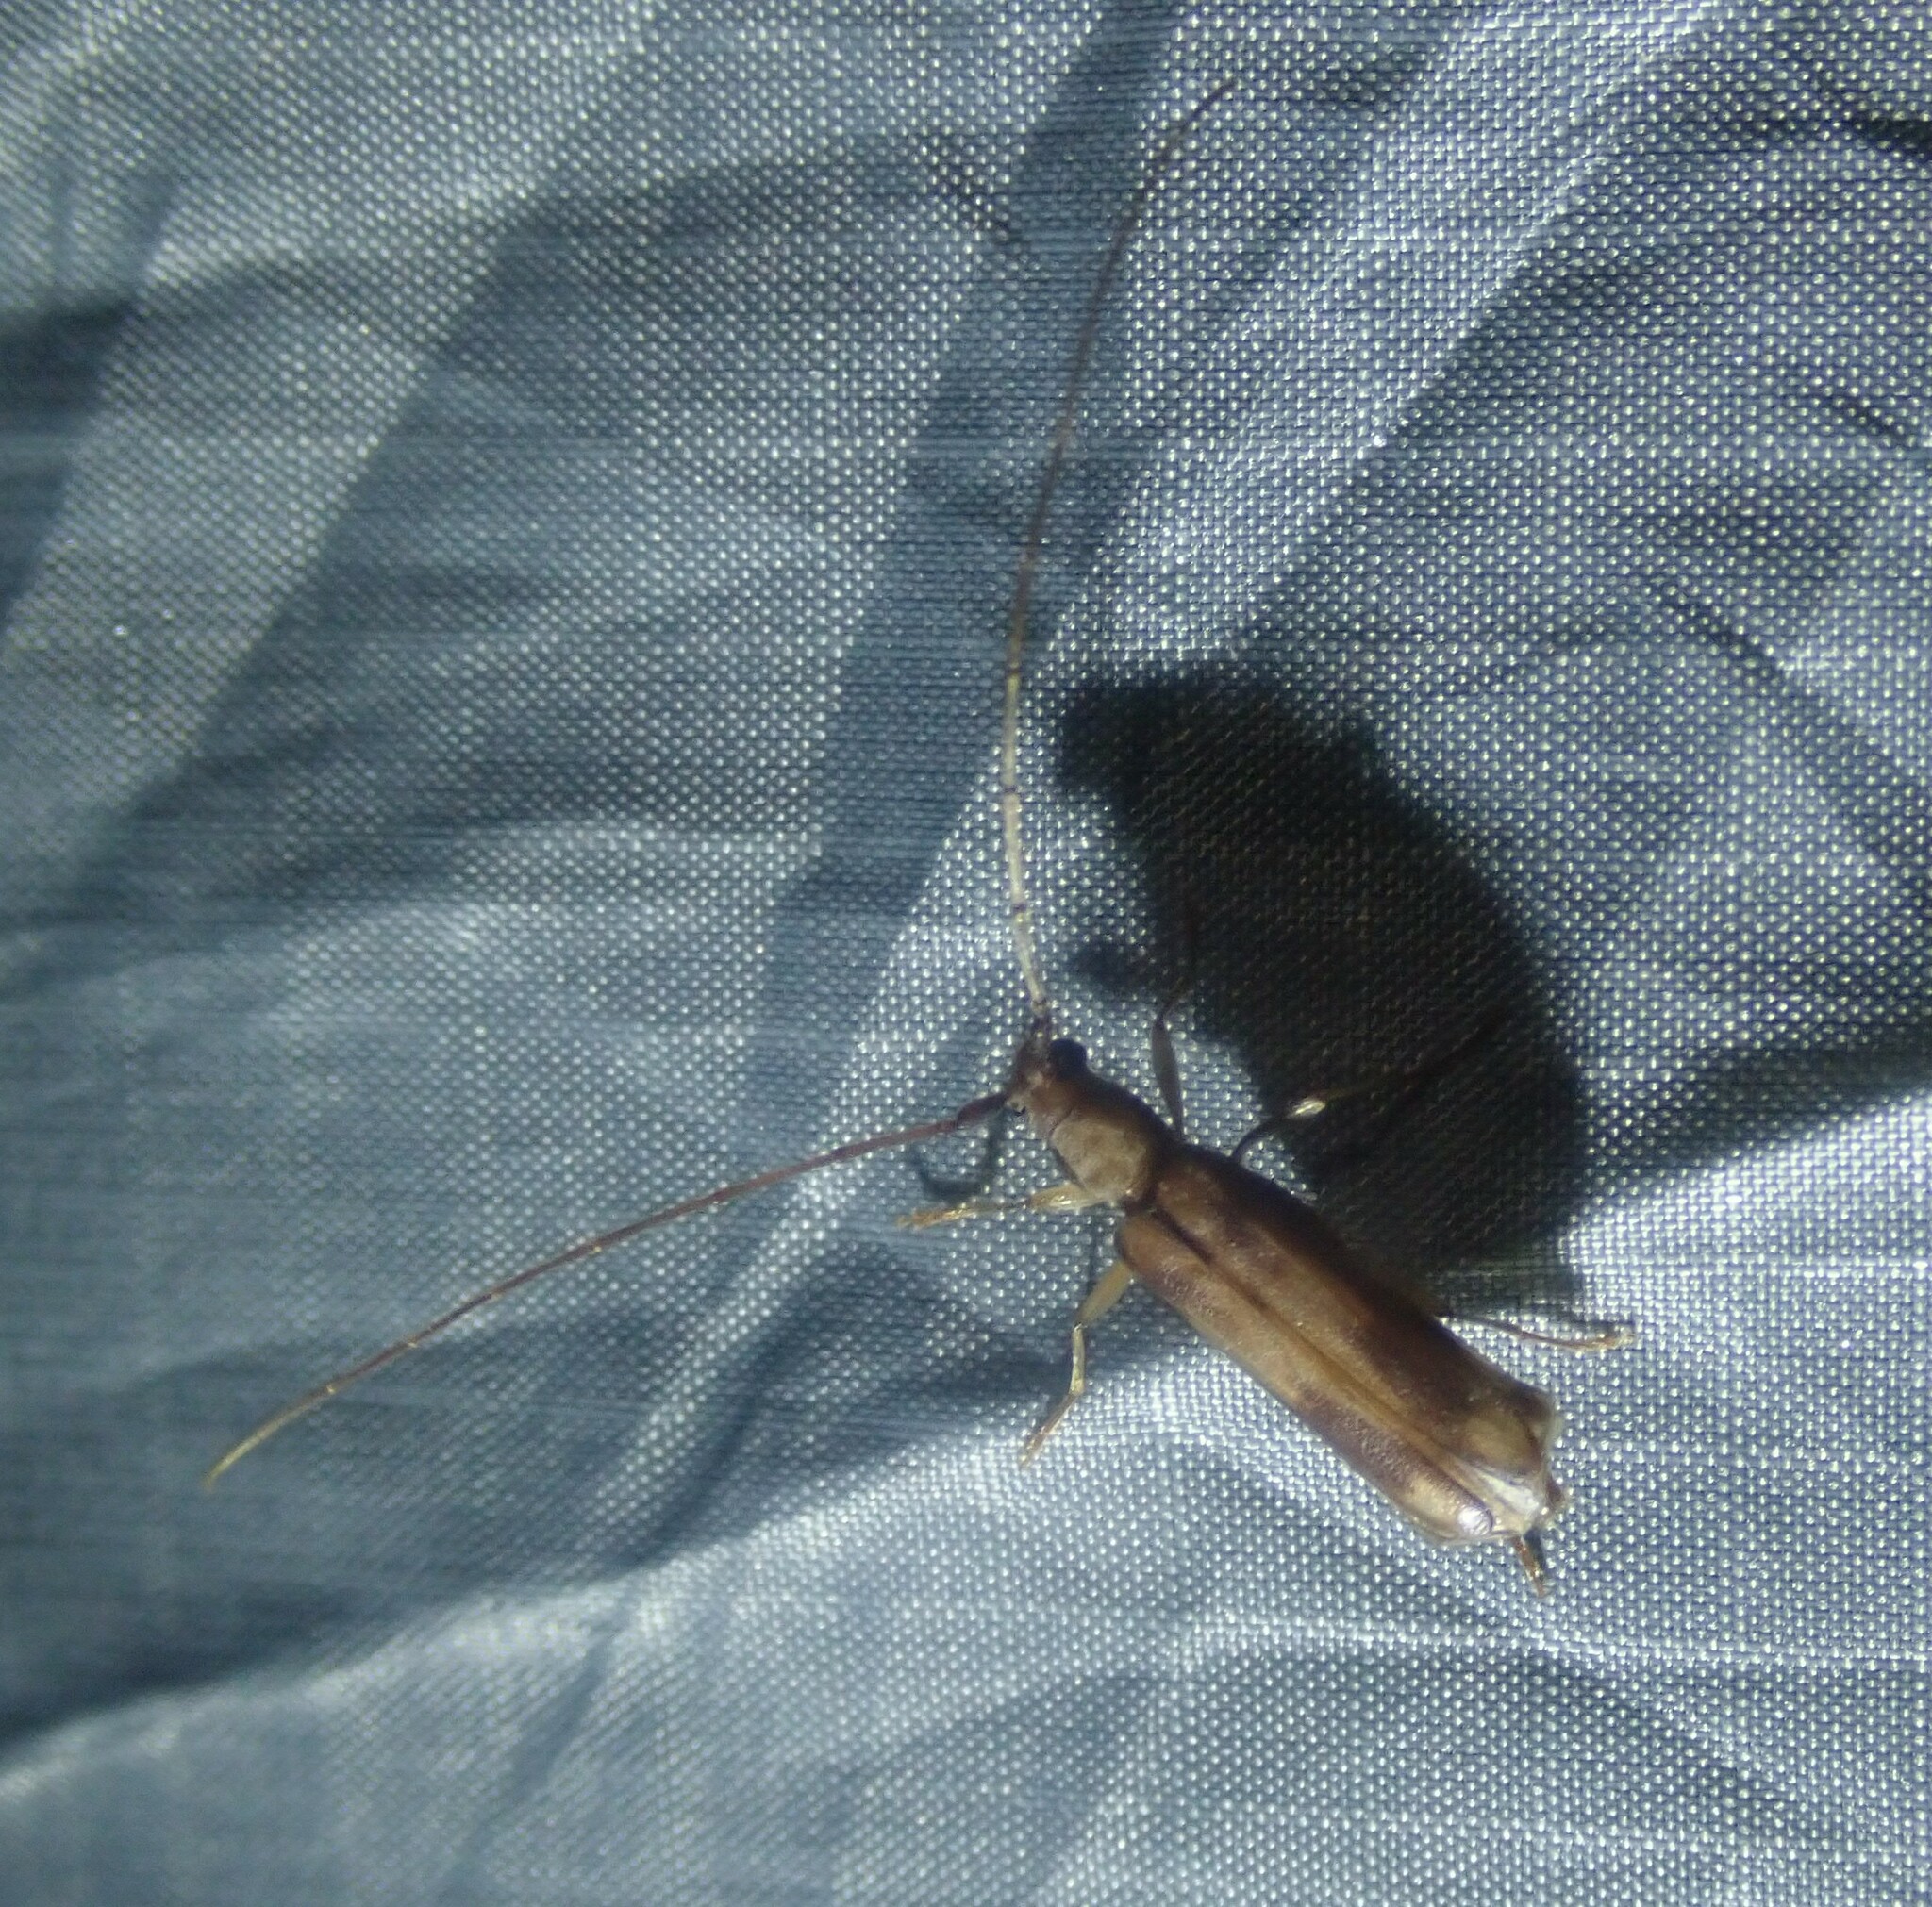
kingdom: Animalia
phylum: Arthropoda
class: Insecta
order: Coleoptera
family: Cerambycidae
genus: Pelossus
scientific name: Pelossus apicalis
